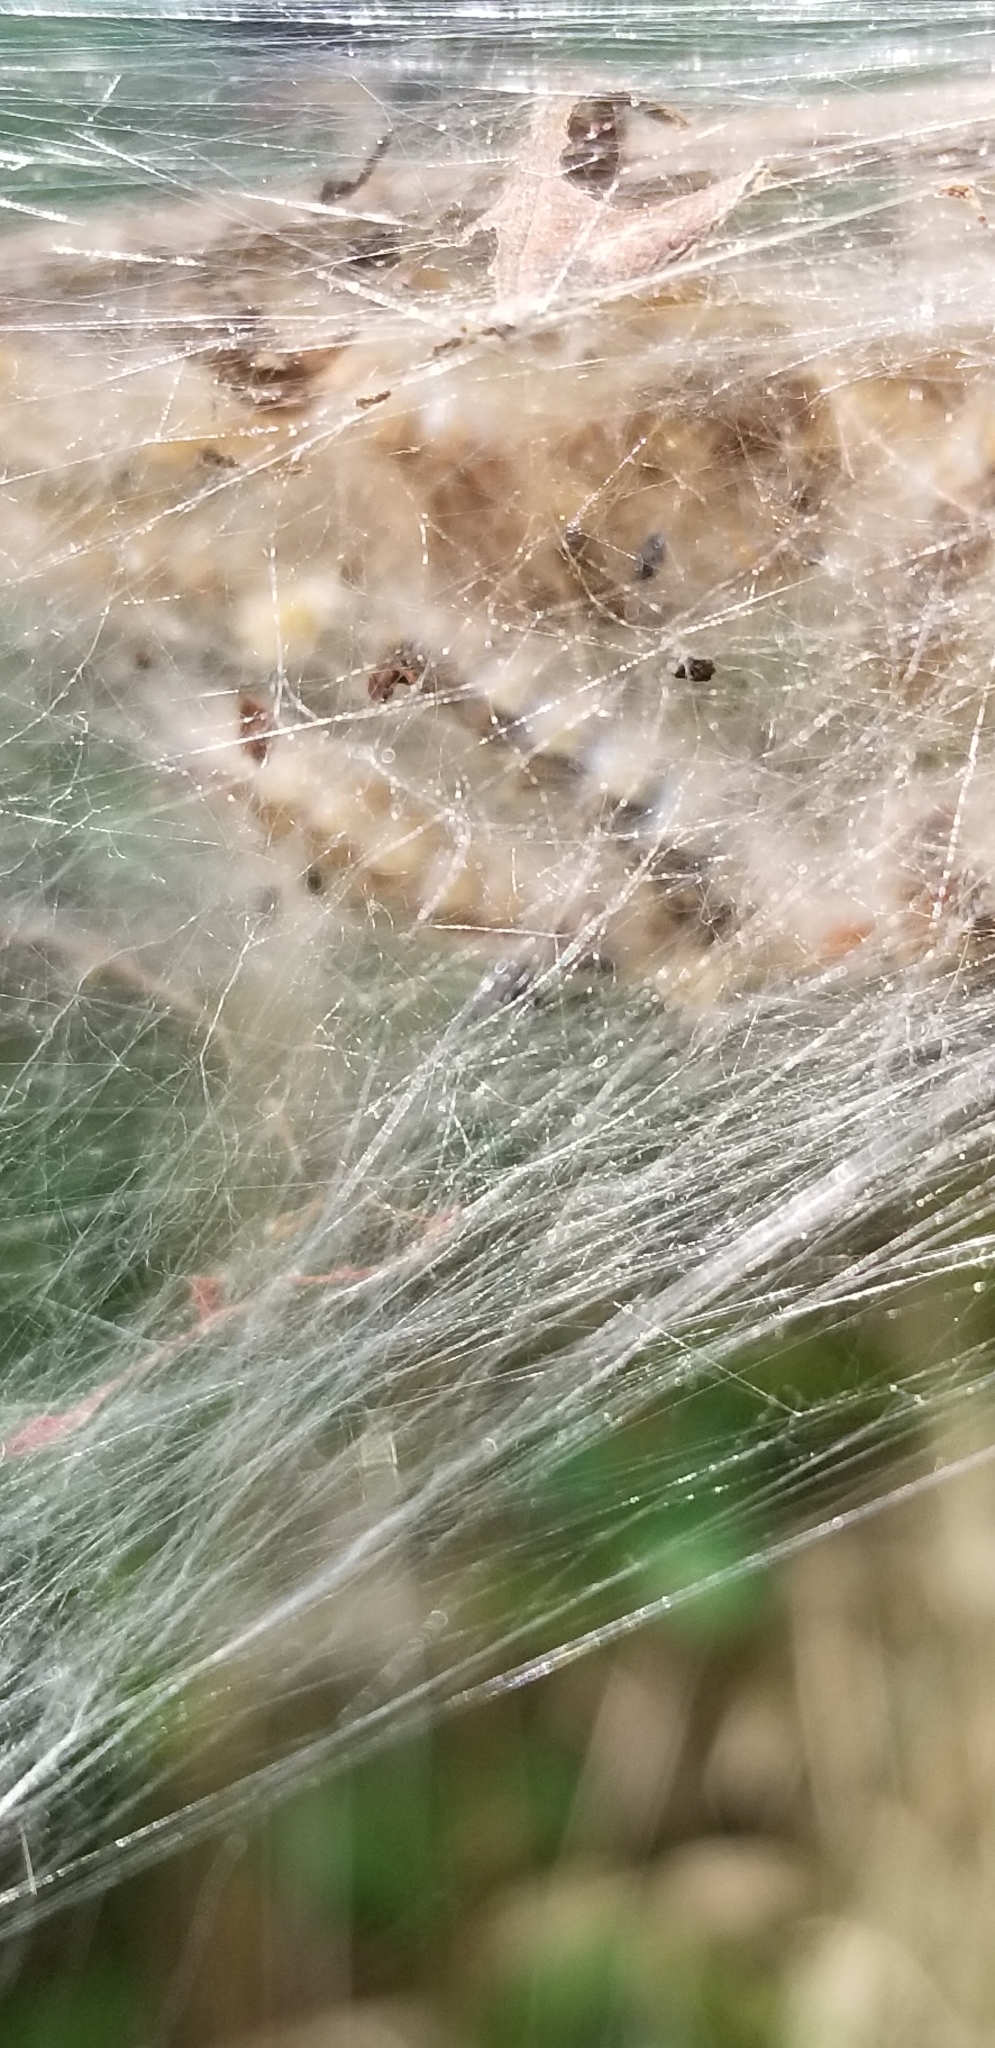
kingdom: Animalia
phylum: Arthropoda
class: Insecta
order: Lepidoptera
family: Erebidae
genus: Hyphantria
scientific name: Hyphantria cunea
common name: American white moth
